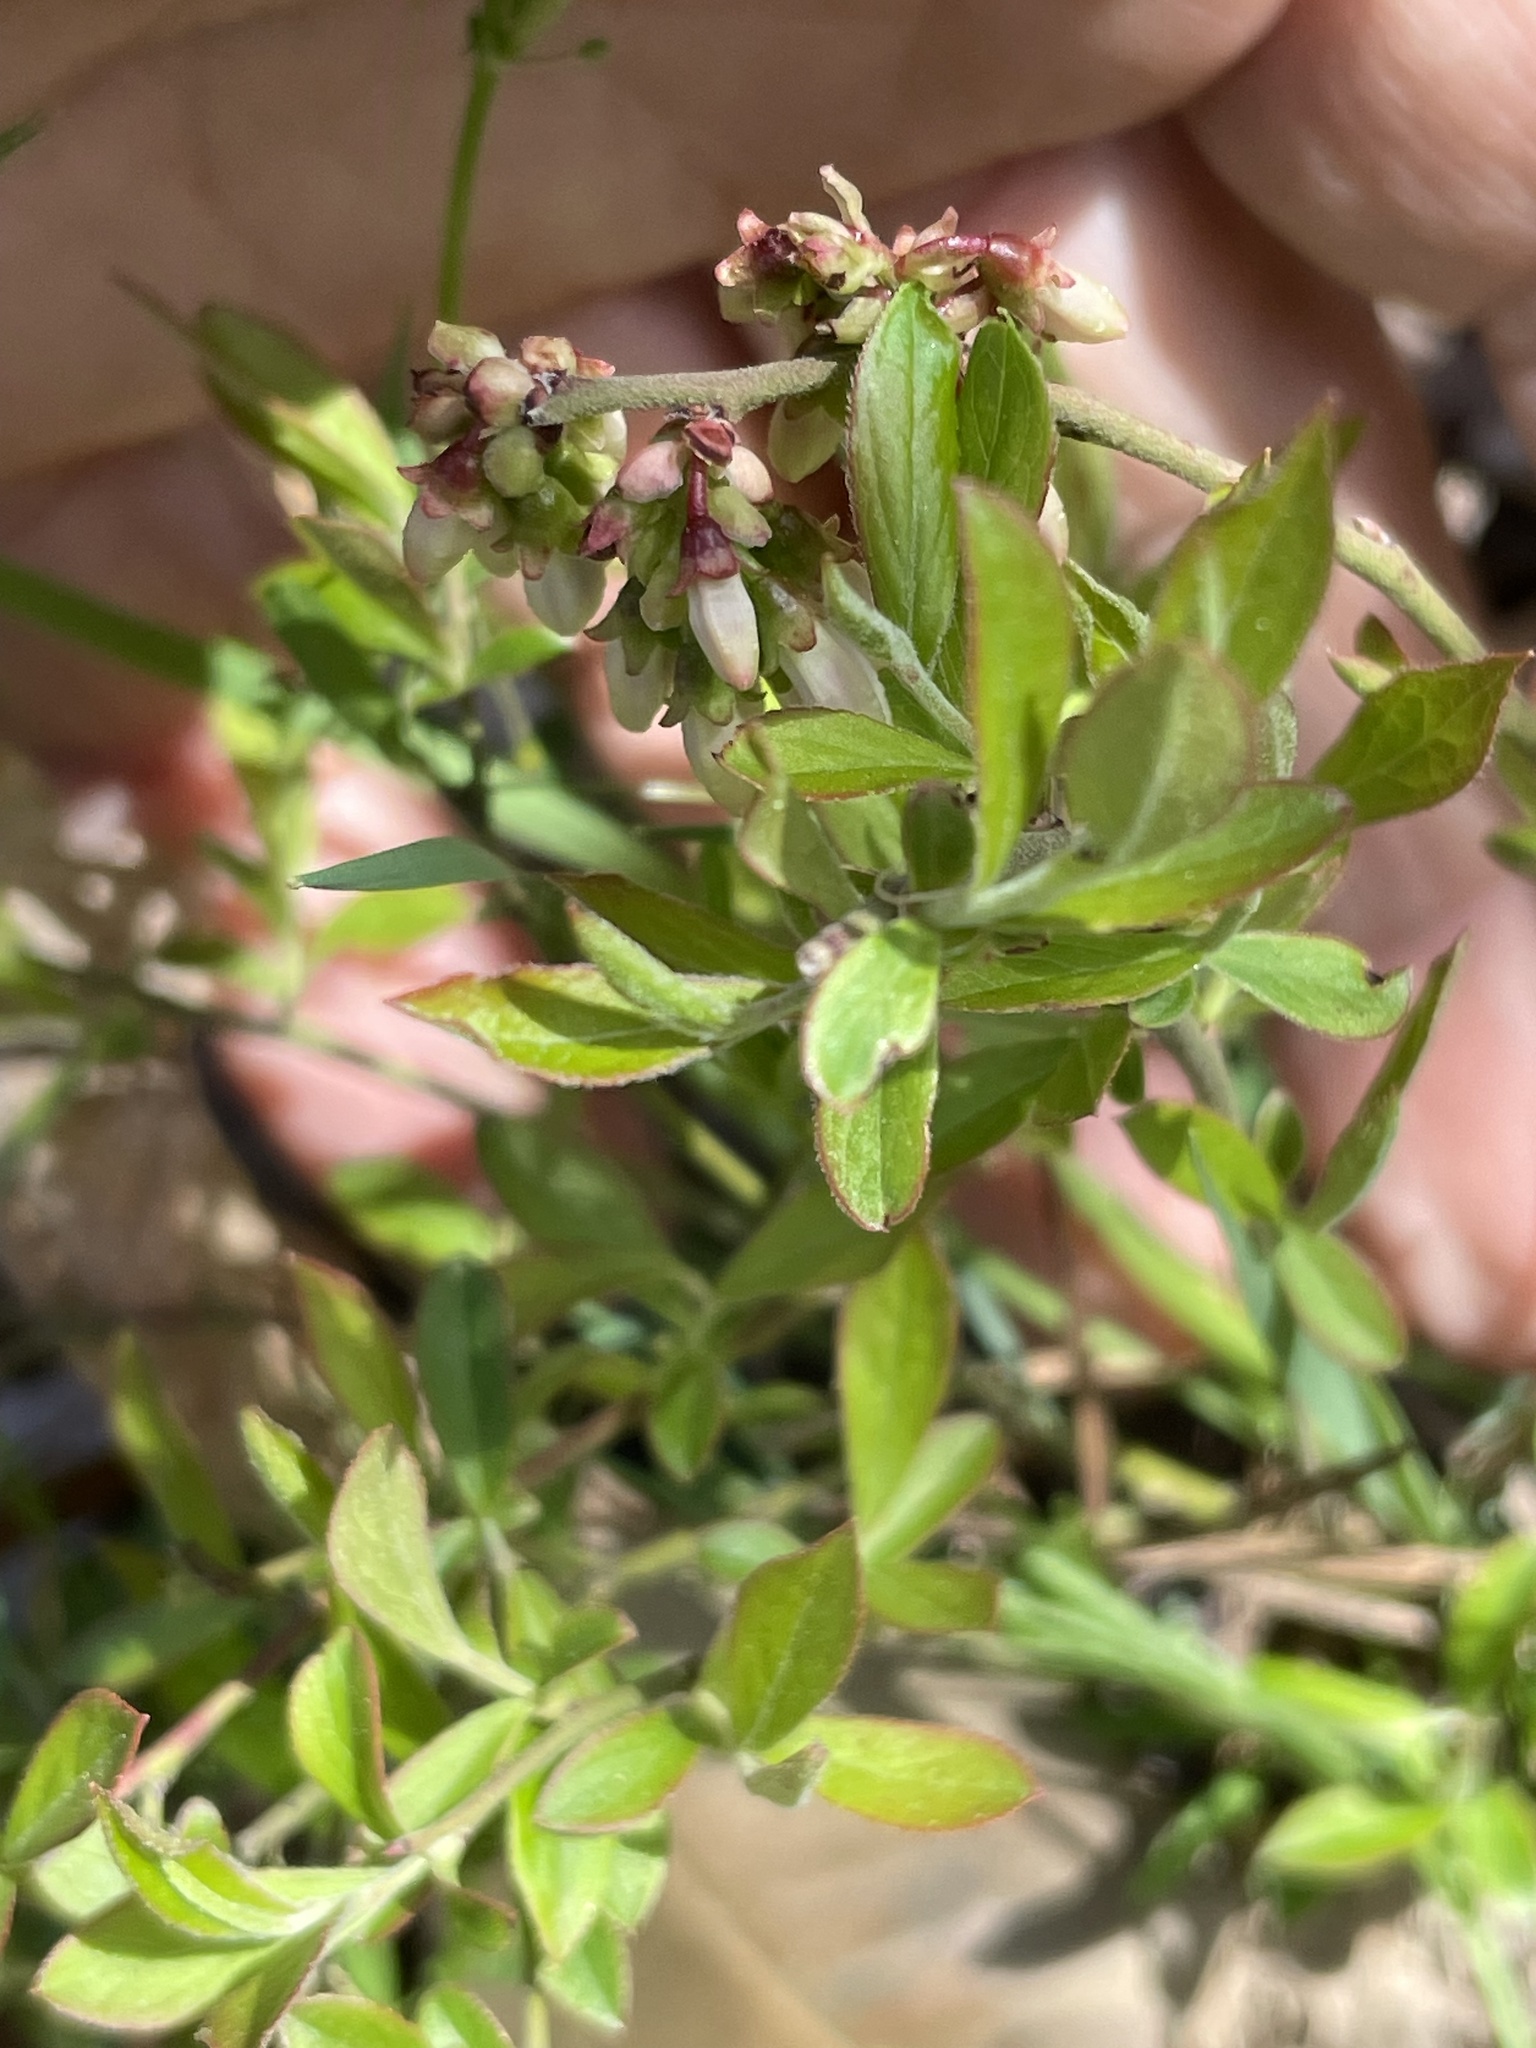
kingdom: Plantae
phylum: Tracheophyta
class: Magnoliopsida
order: Ericales
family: Ericaceae
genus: Vaccinium
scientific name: Vaccinium tenellum
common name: Southern blueberry
